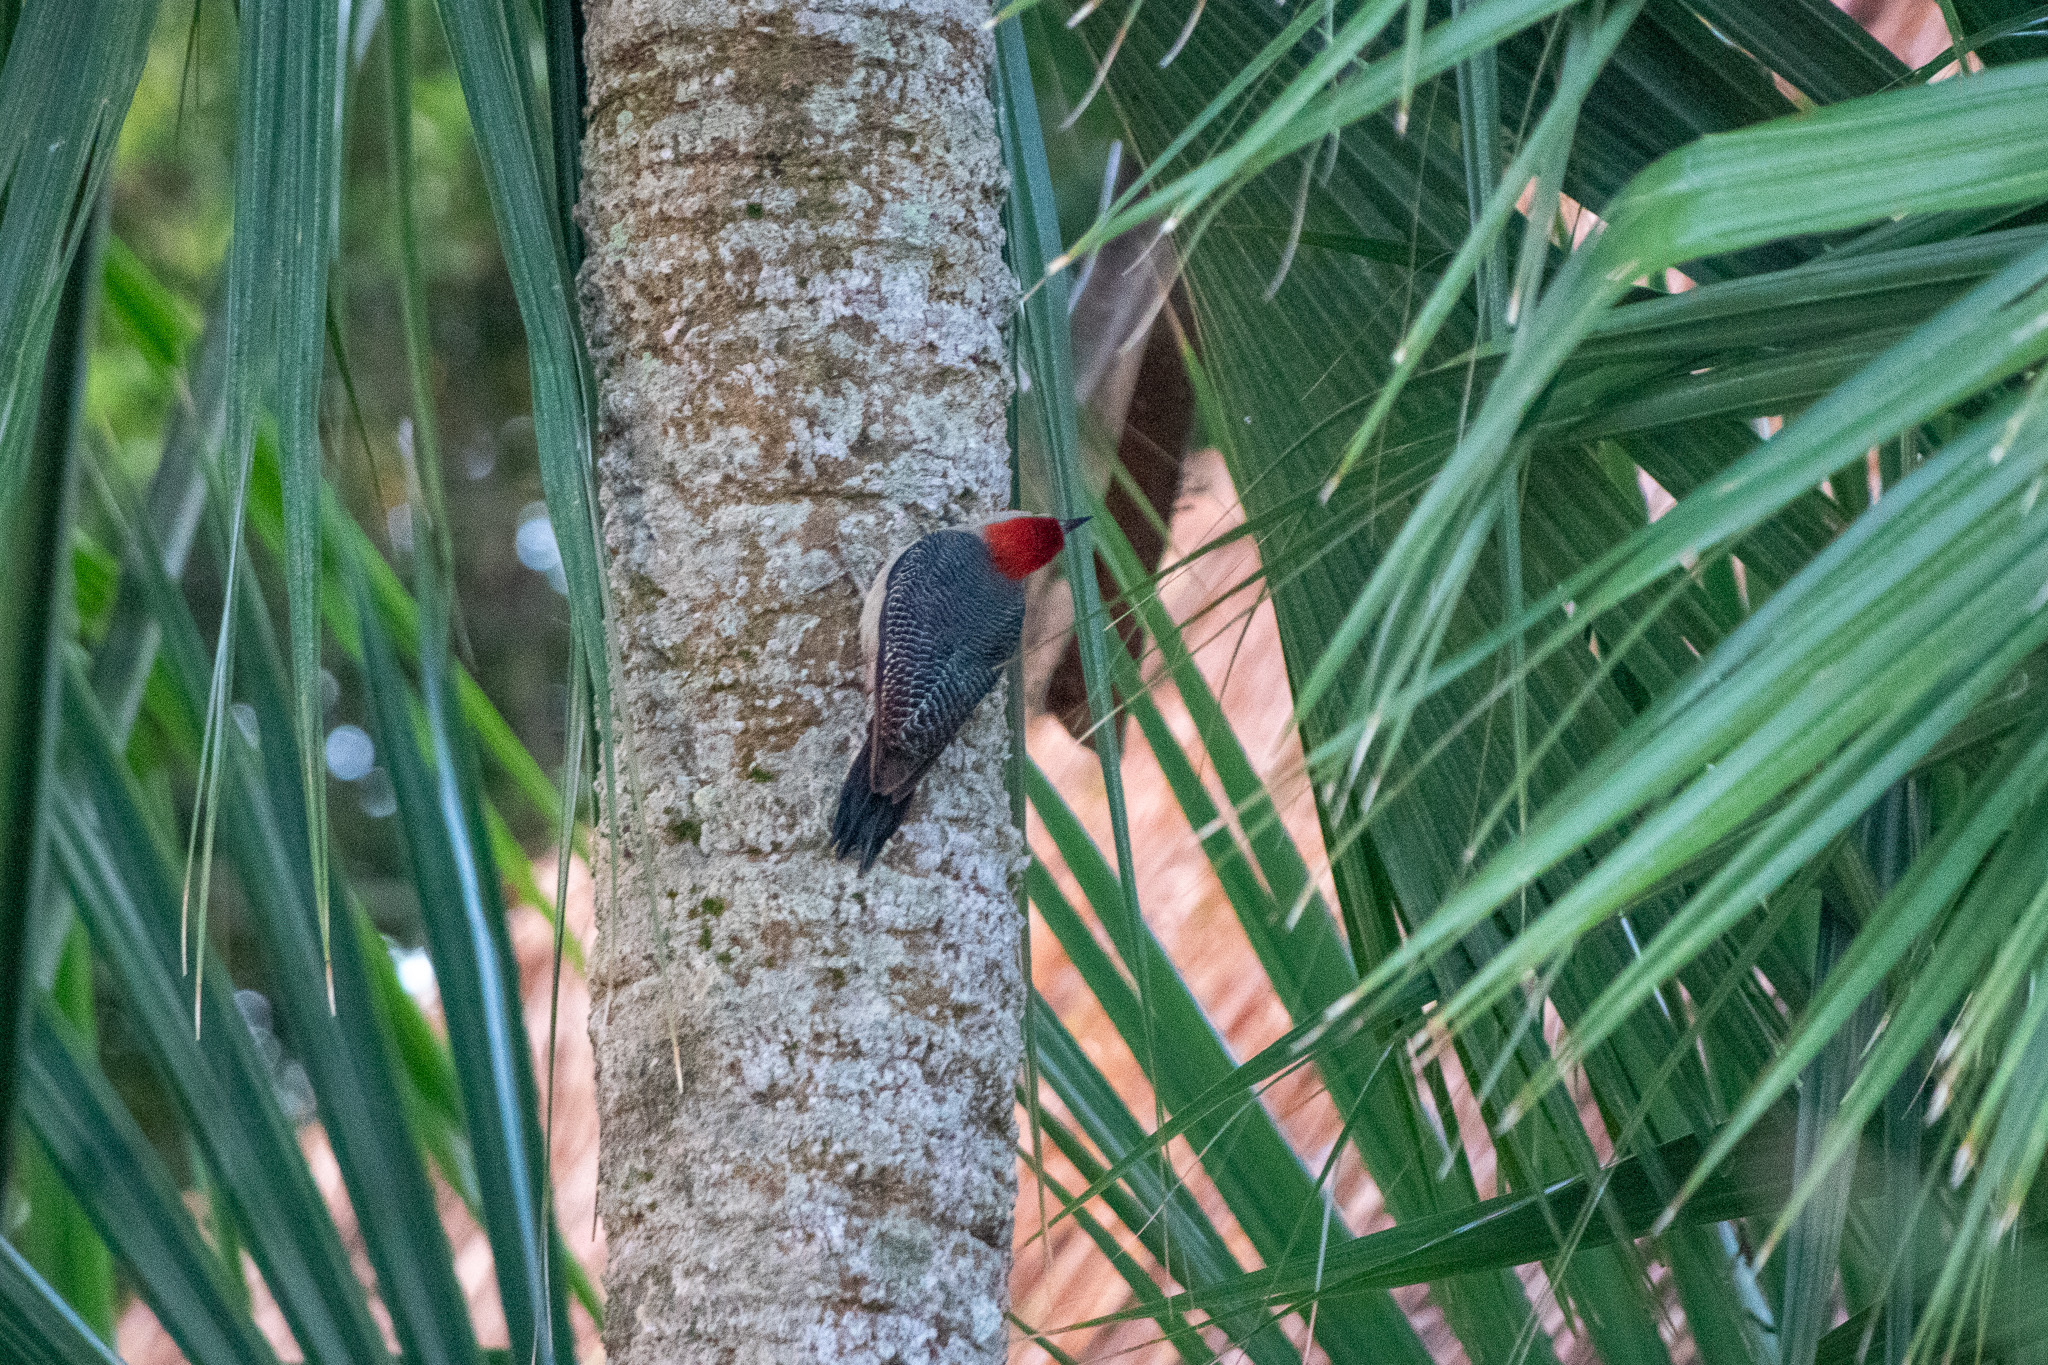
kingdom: Animalia
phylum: Chordata
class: Aves
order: Piciformes
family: Picidae
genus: Melanerpes
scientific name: Melanerpes aurifrons
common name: Golden-fronted woodpecker
